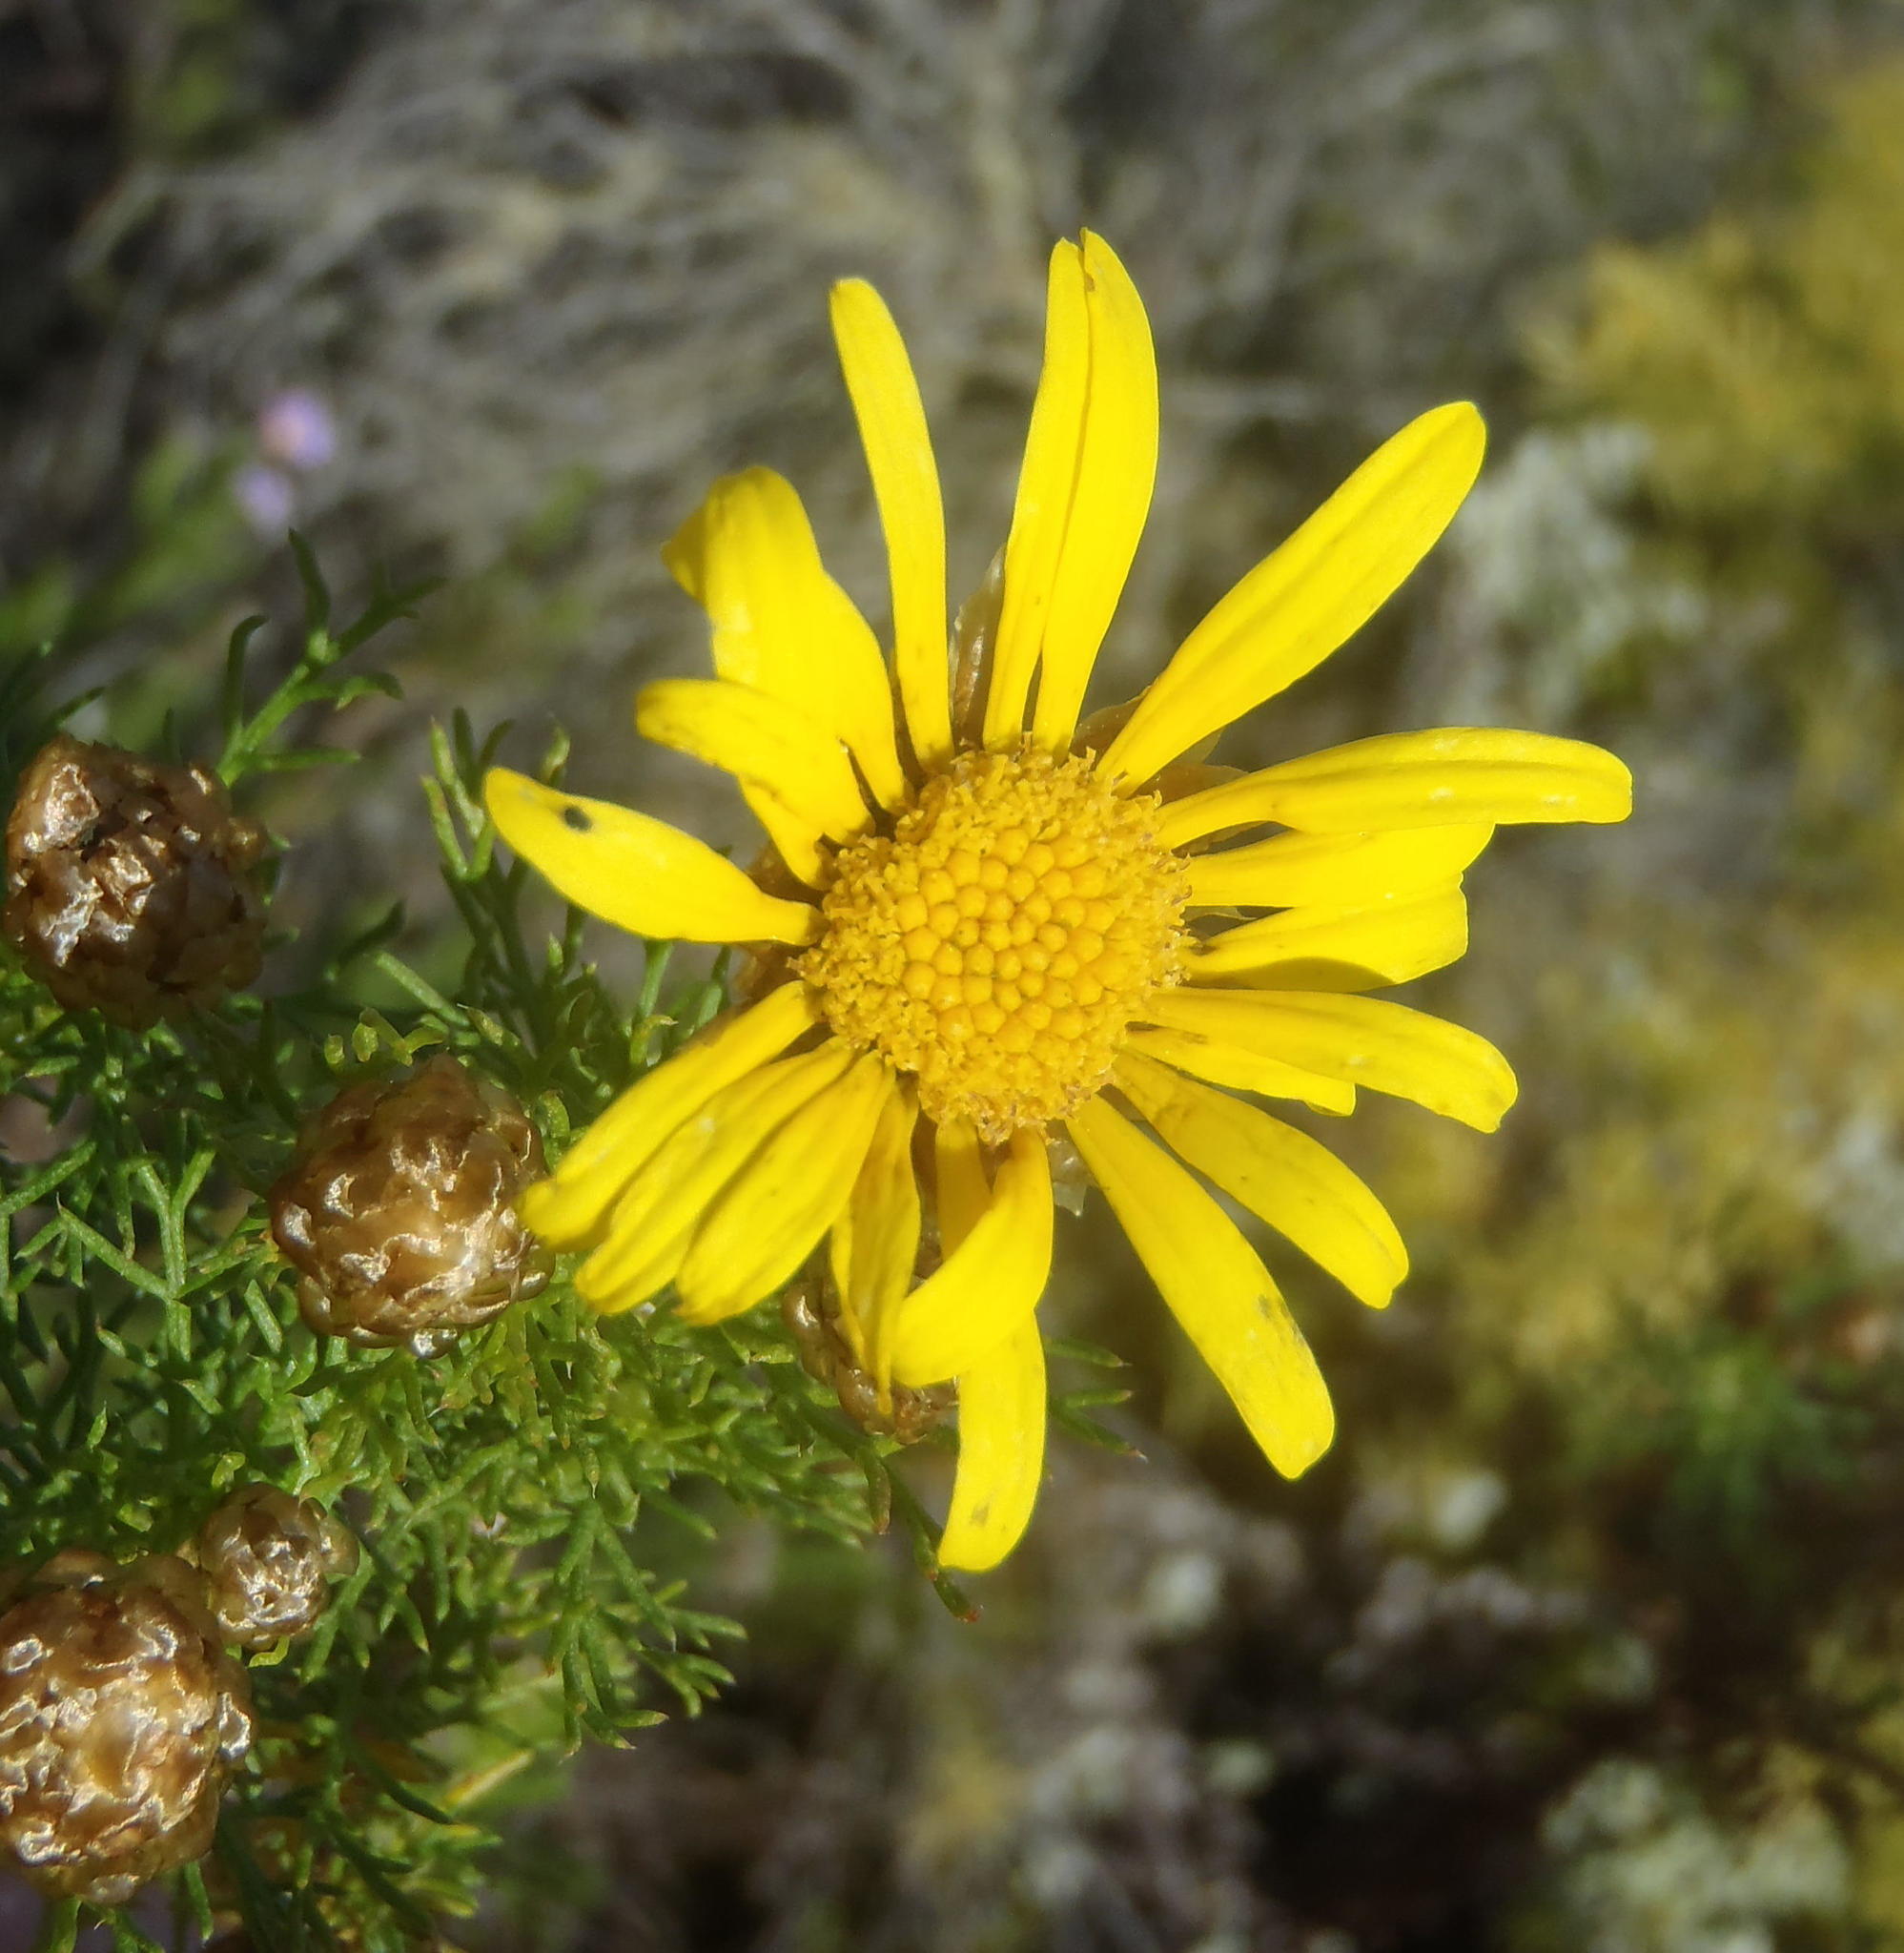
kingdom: Plantae
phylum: Tracheophyta
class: Magnoliopsida
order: Asterales
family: Asteraceae
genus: Ursinia
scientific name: Ursinia scariosa
